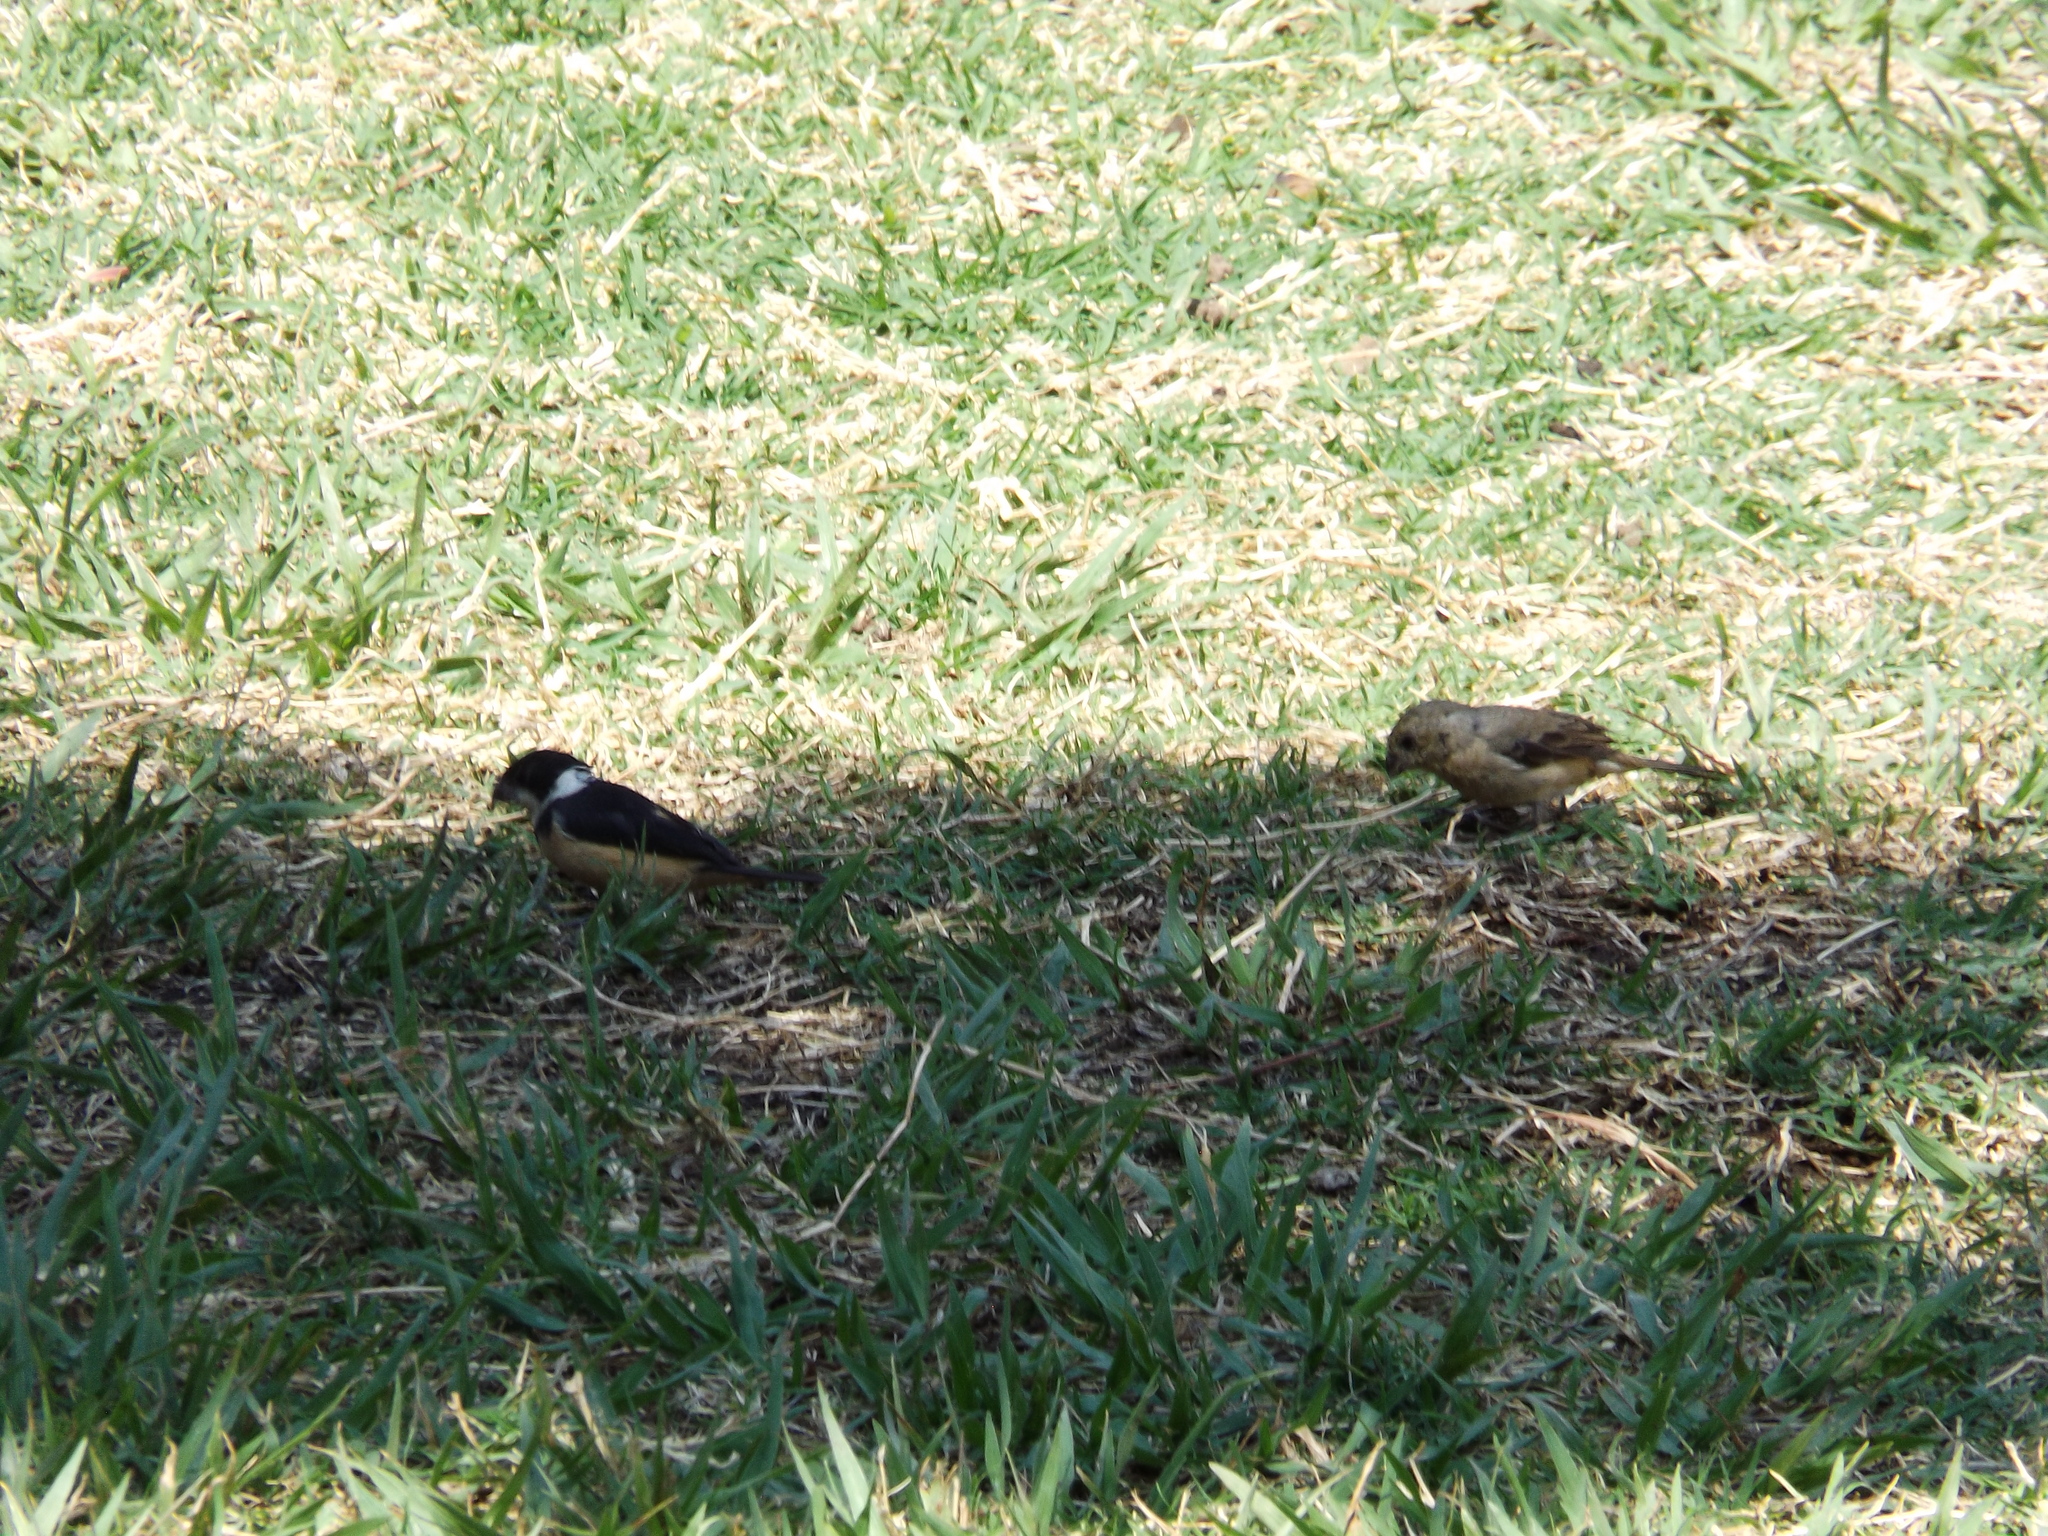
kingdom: Animalia
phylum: Chordata
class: Aves
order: Passeriformes
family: Thraupidae
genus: Sporophila
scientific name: Sporophila torqueola
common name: White-collared seedeater
